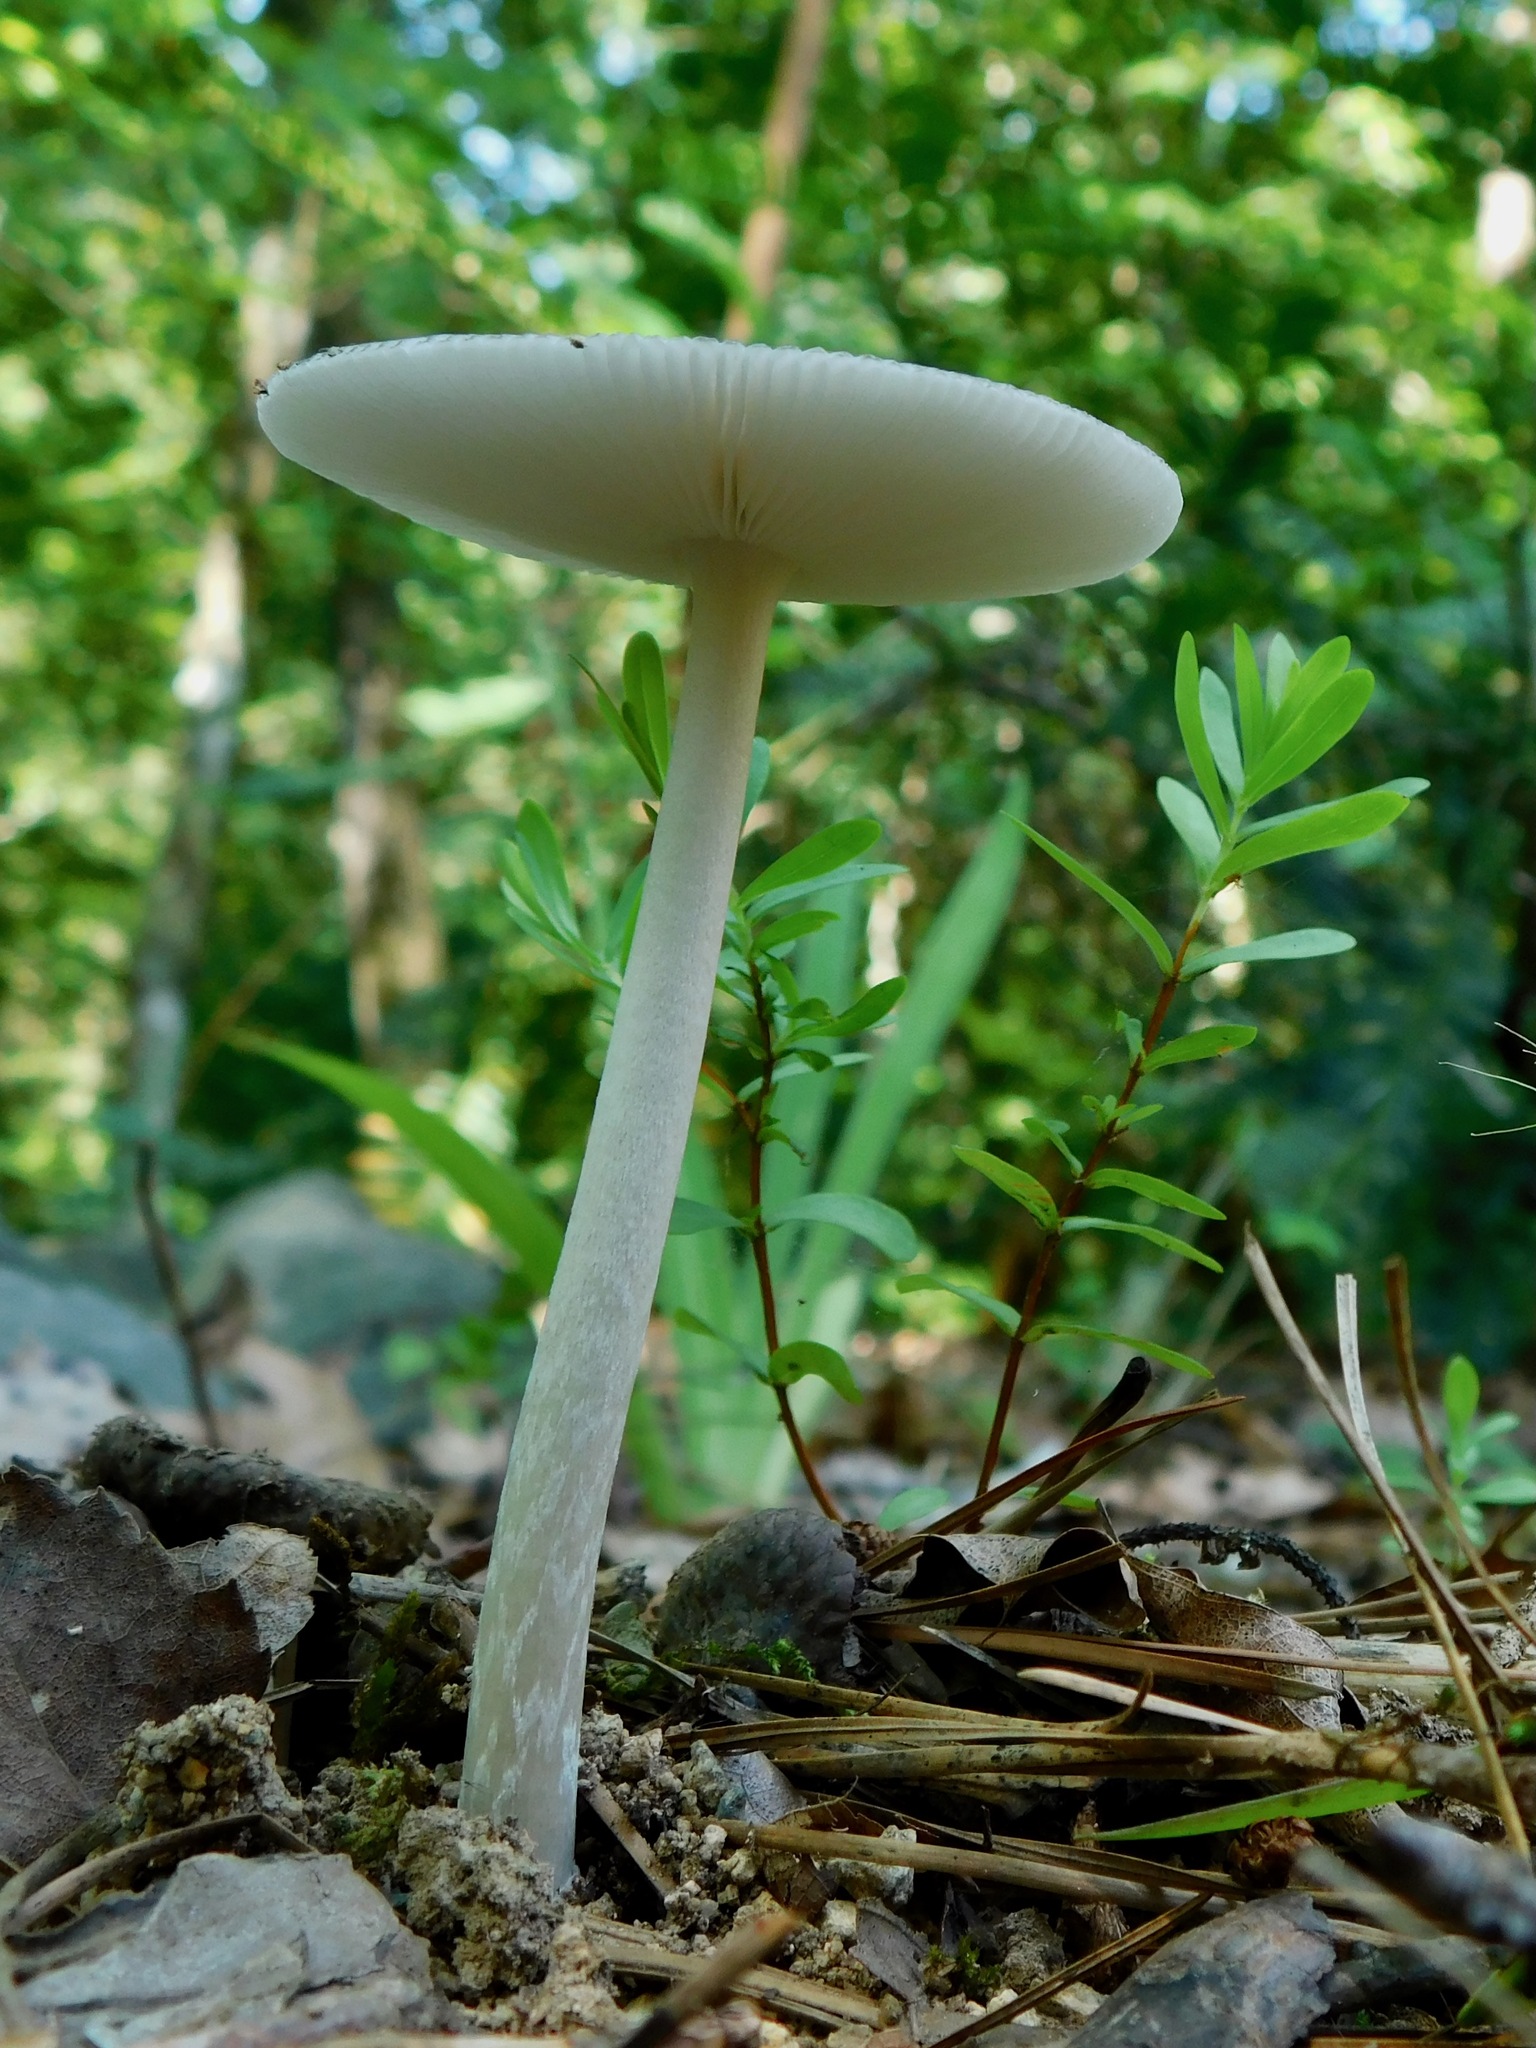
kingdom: Fungi
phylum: Basidiomycota
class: Agaricomycetes
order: Agaricales
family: Amanitaceae
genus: Amanita
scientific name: Amanita vaginata
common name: Grisette
